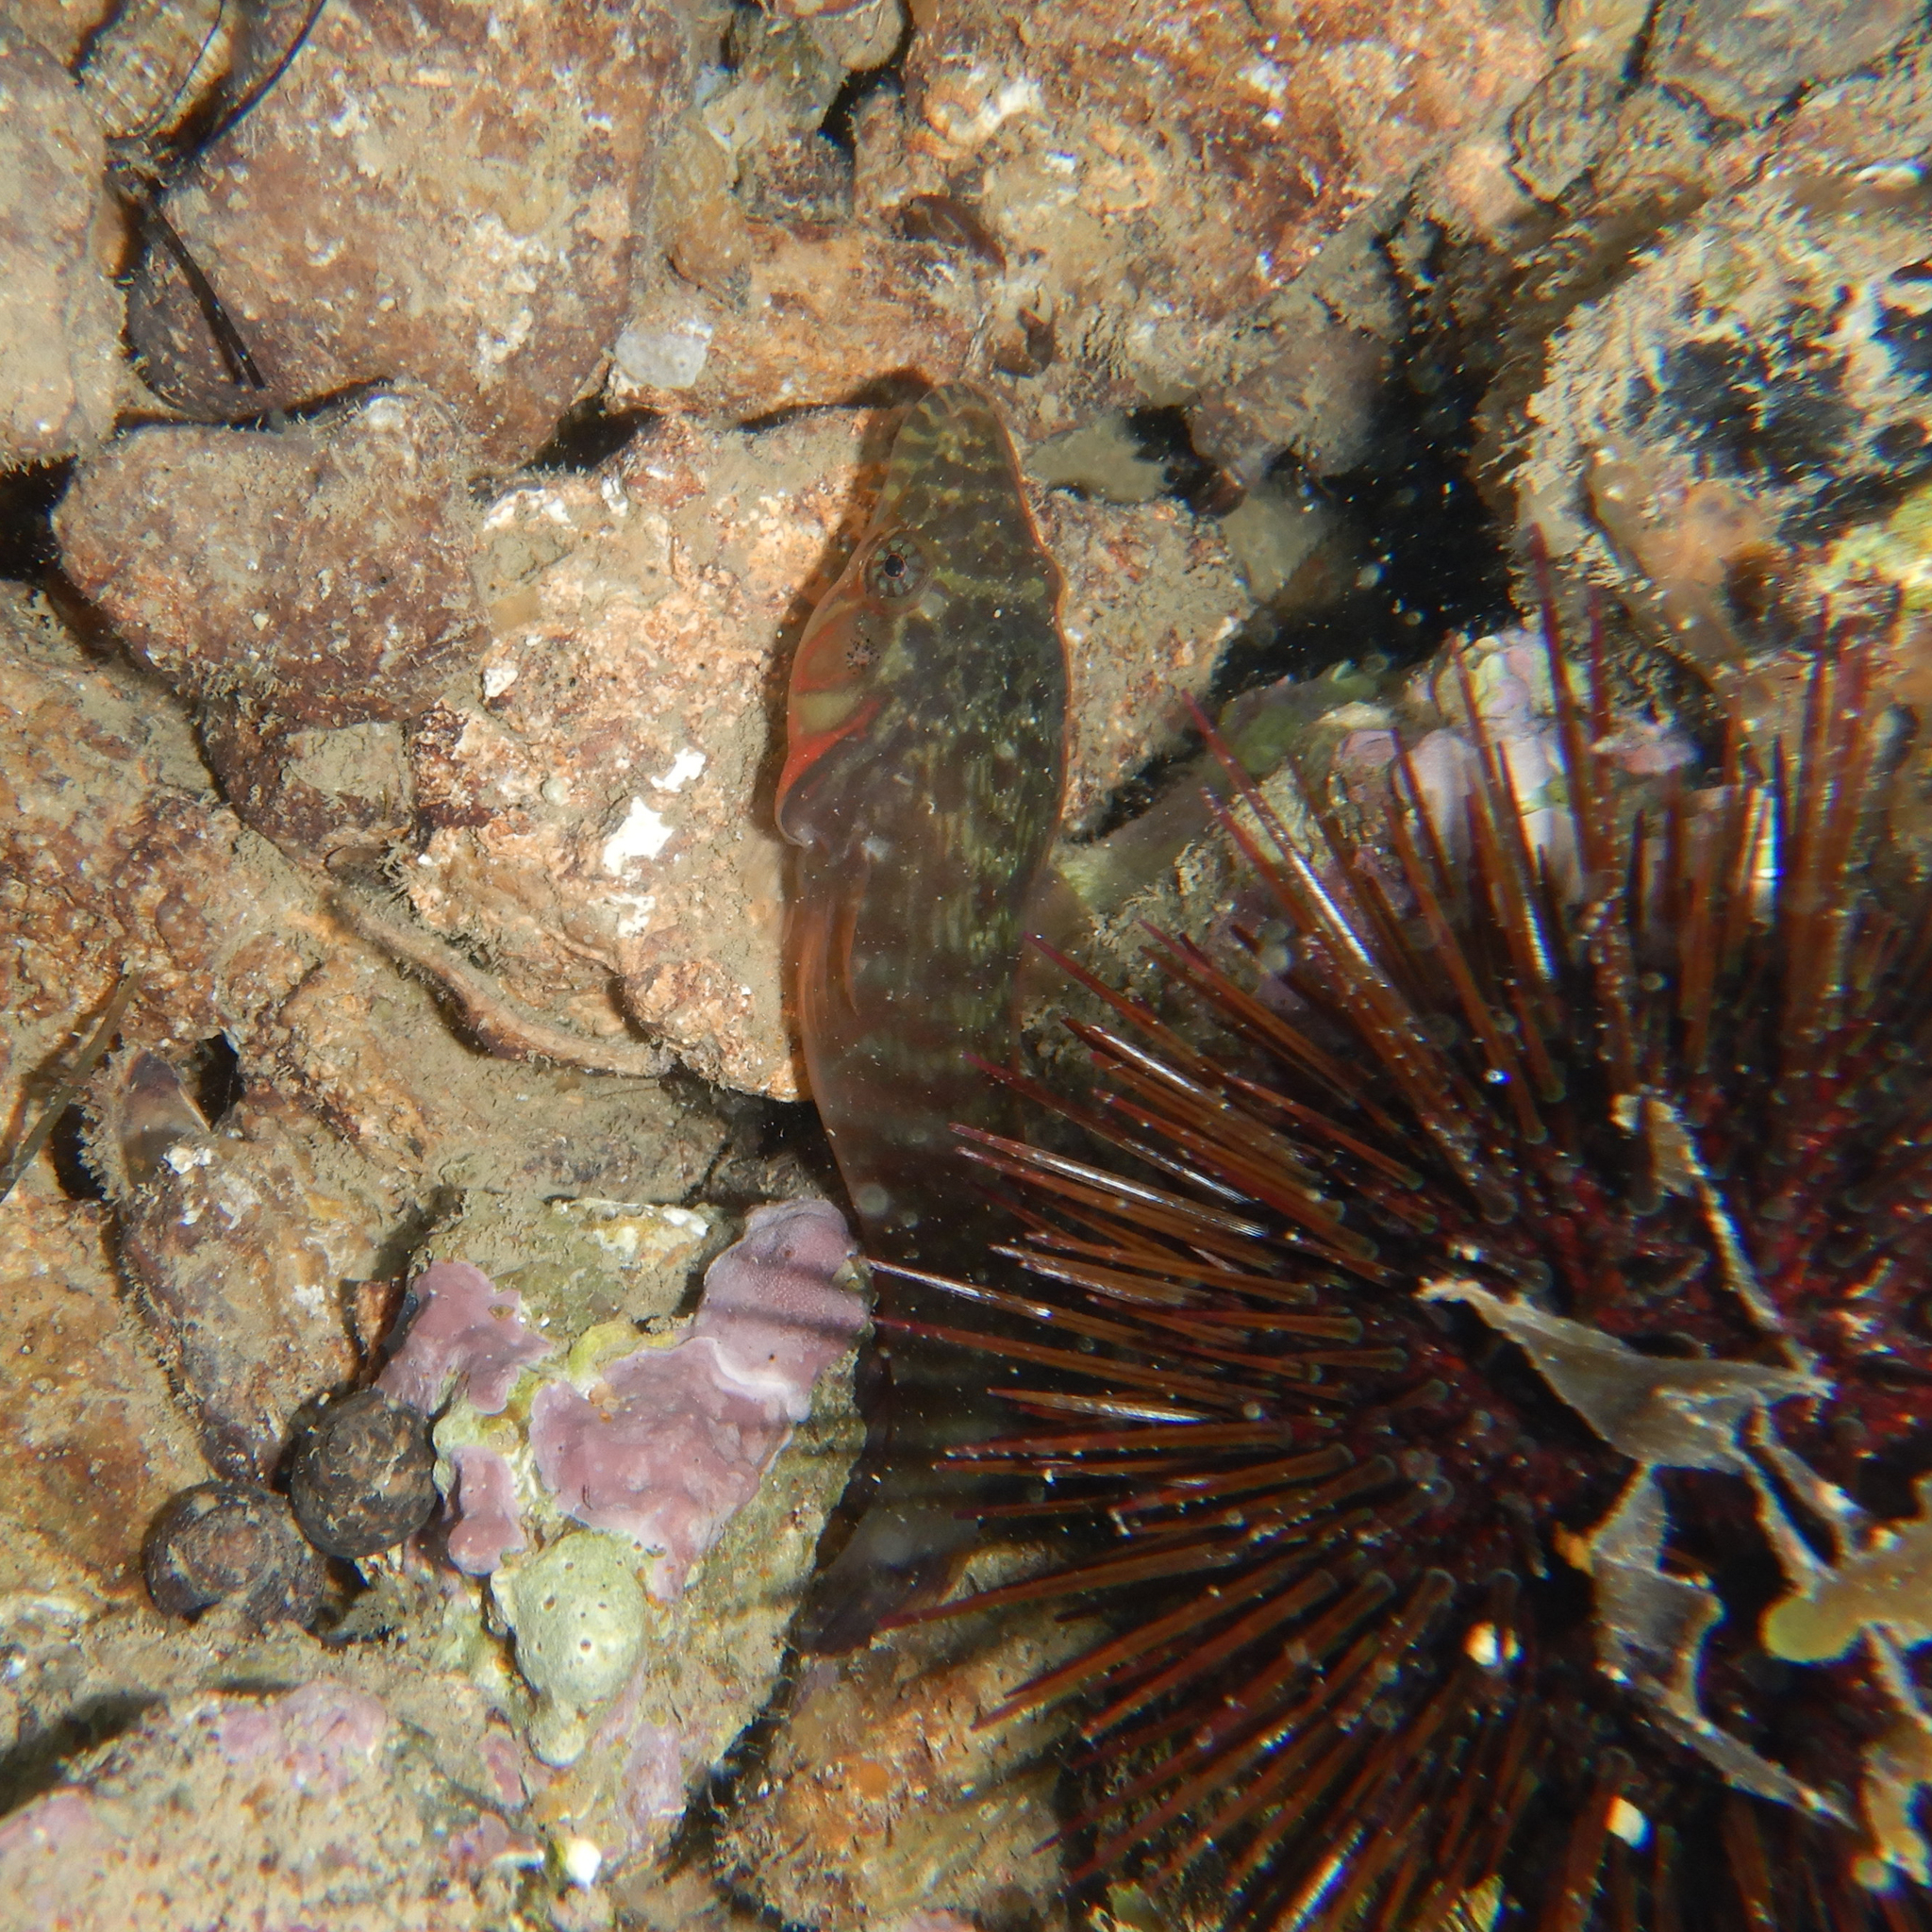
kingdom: Animalia
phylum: Chordata
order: Gobiesociformes
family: Gobiesocidae
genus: Lepadogaster
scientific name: Lepadogaster candolii
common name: Connemarra clingfish
